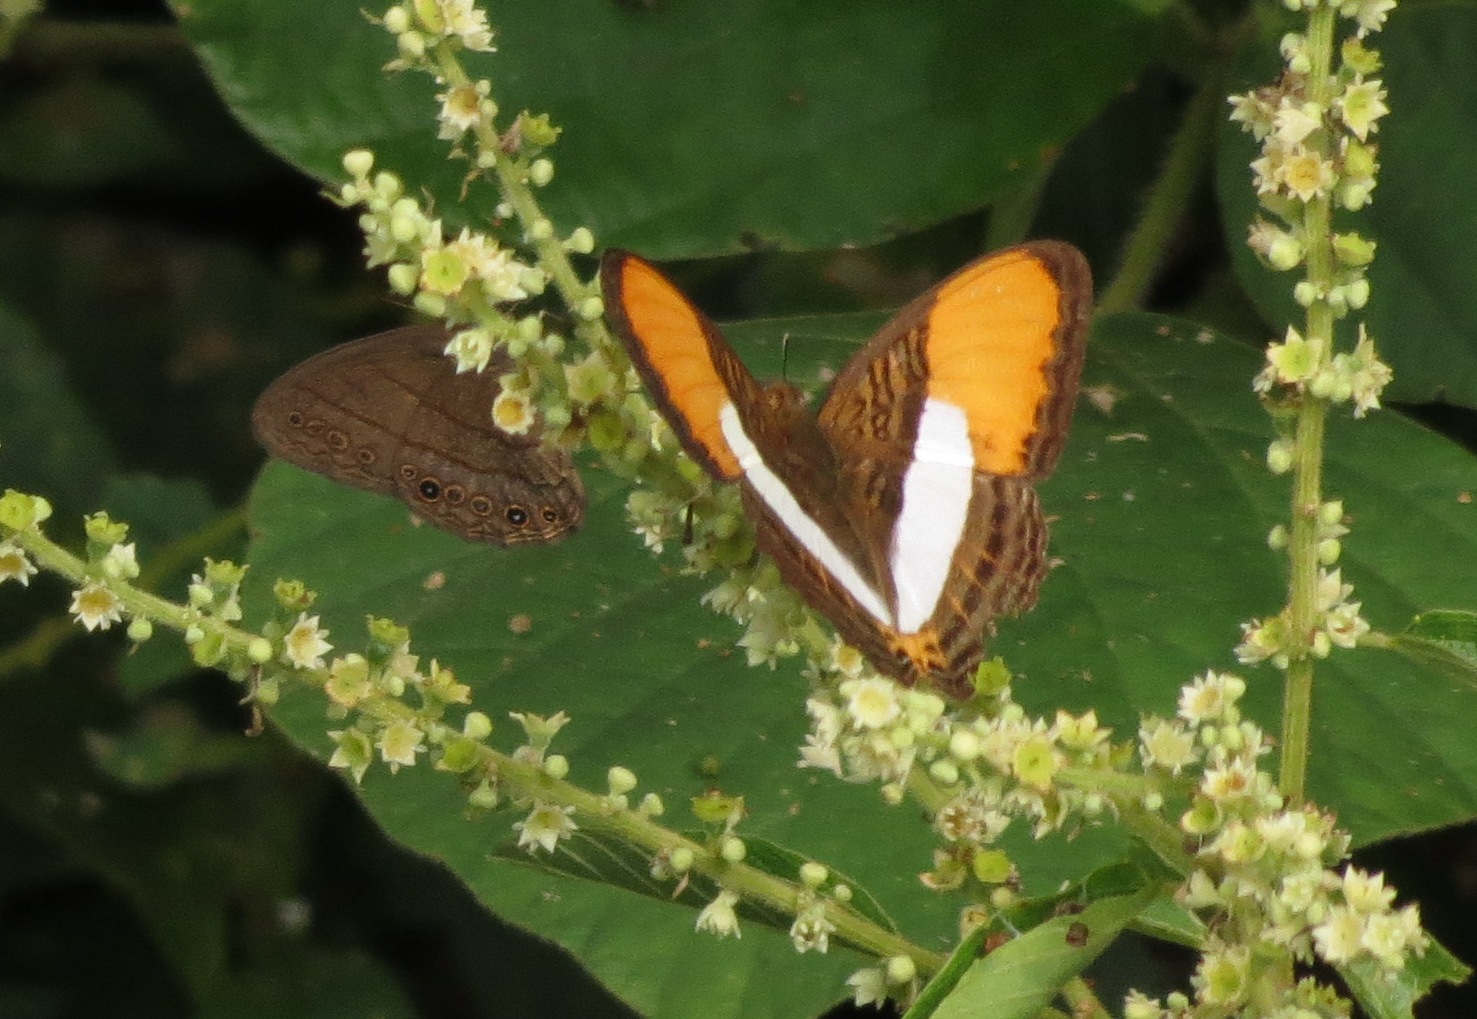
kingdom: Animalia
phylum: Arthropoda
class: Insecta
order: Lepidoptera
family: Nymphalidae
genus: Limenitis
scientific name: Limenitis cytherea
